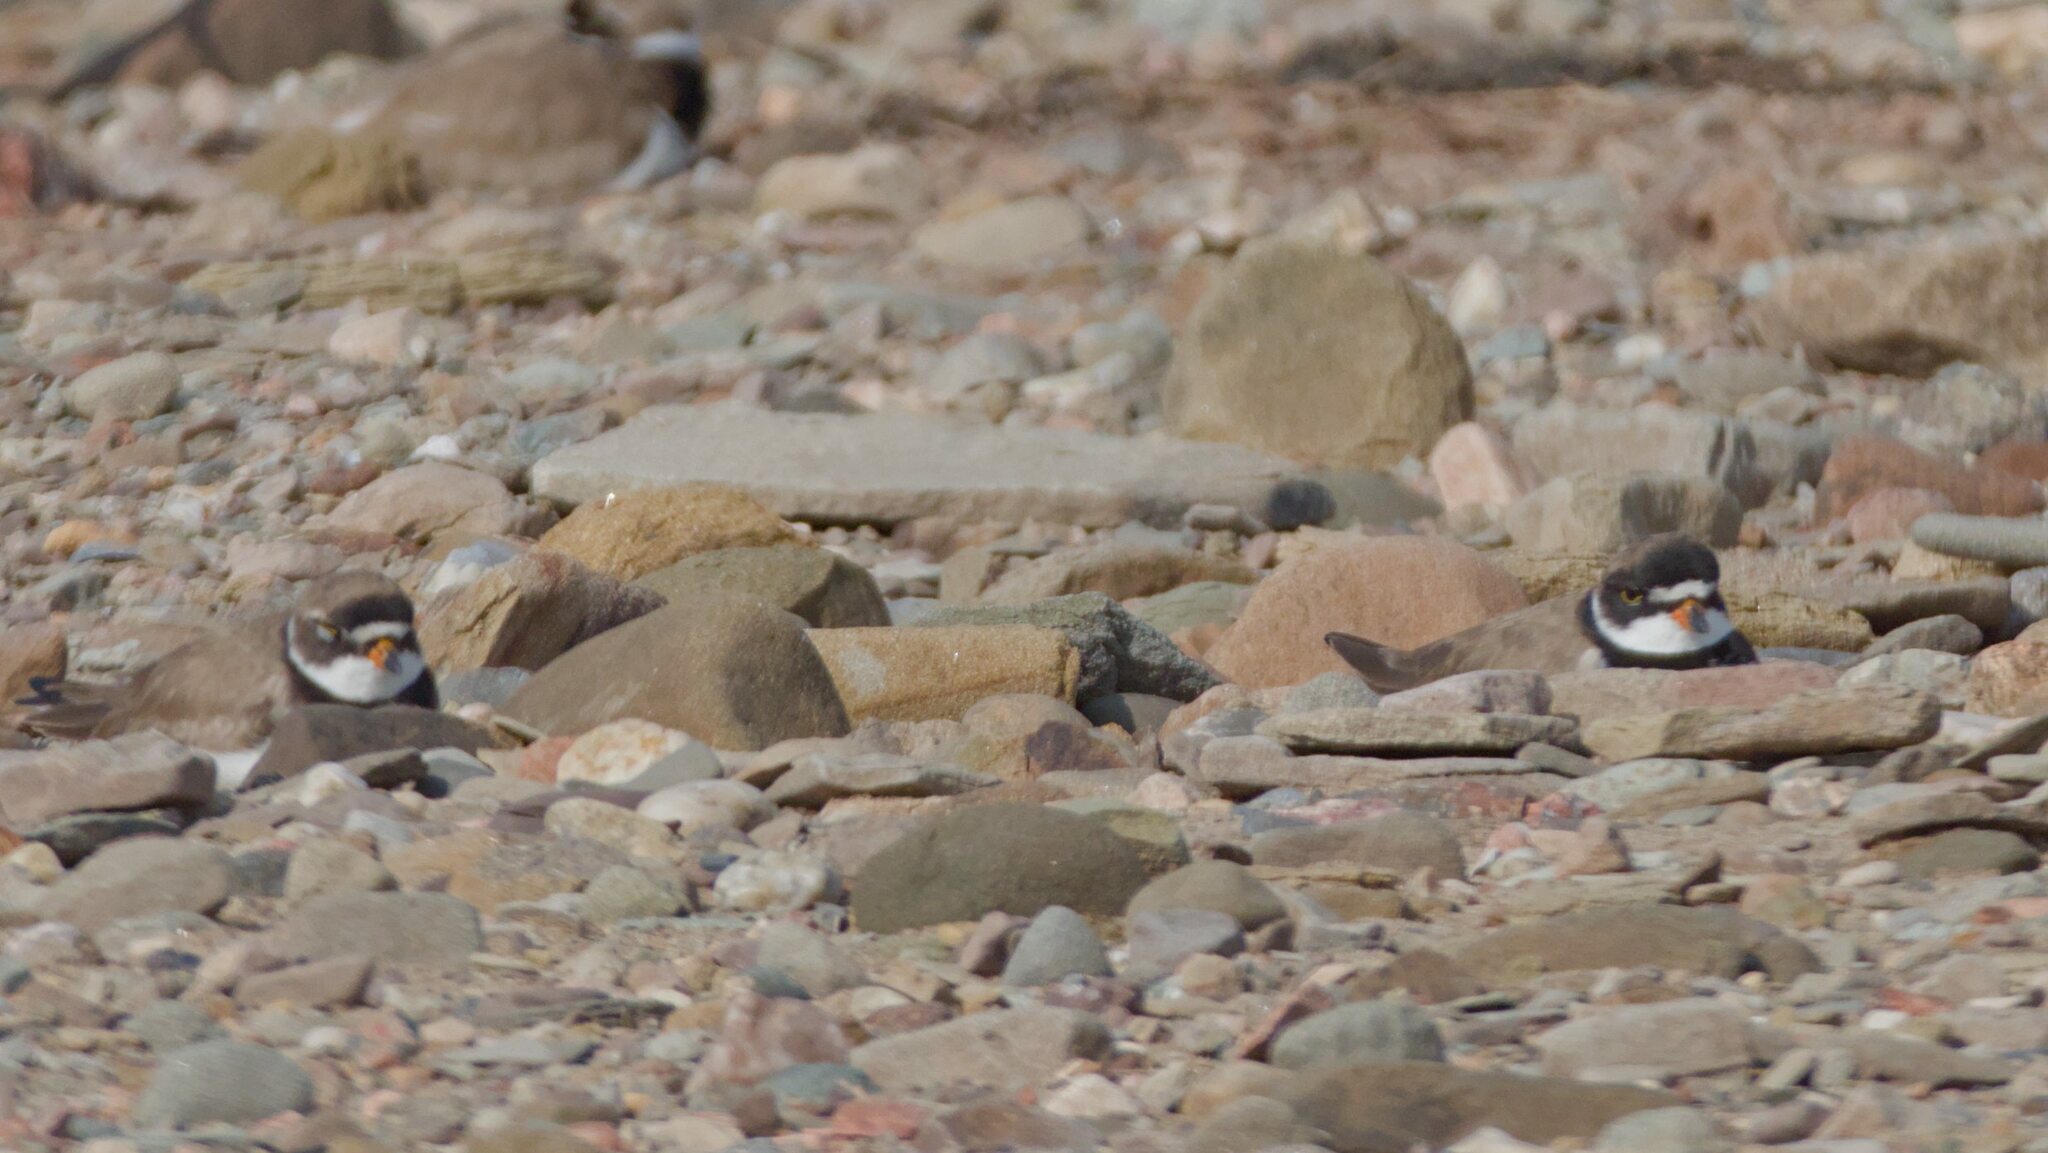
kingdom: Animalia
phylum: Chordata
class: Aves
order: Charadriiformes
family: Charadriidae
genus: Charadrius
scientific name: Charadrius semipalmatus
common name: Semipalmated plover
